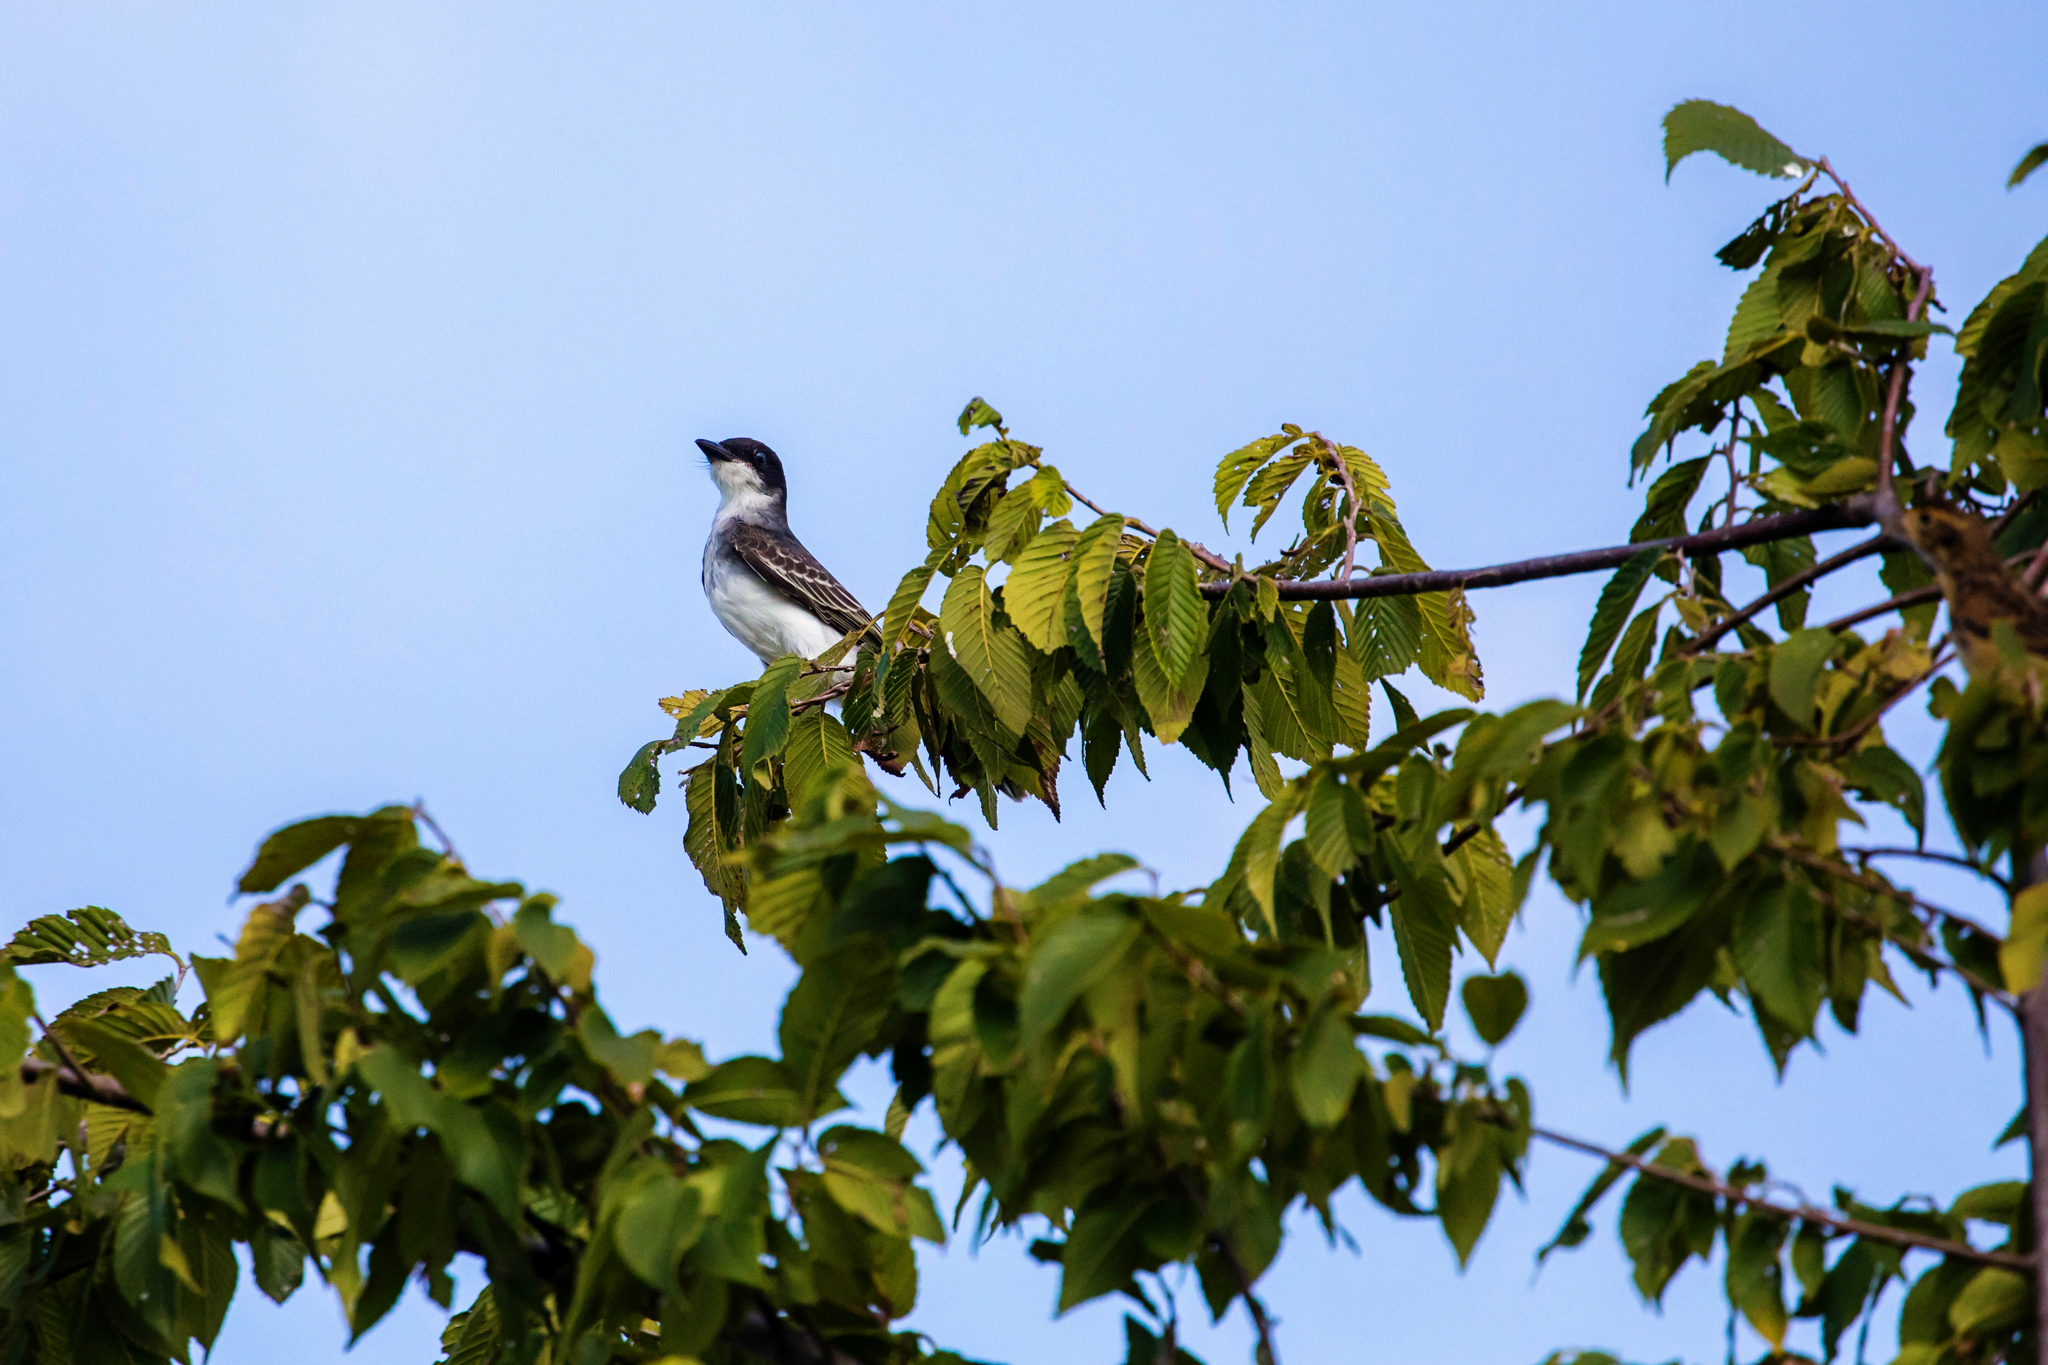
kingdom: Animalia
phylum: Chordata
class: Aves
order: Passeriformes
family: Tyrannidae
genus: Tyrannus
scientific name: Tyrannus tyrannus
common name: Eastern kingbird
